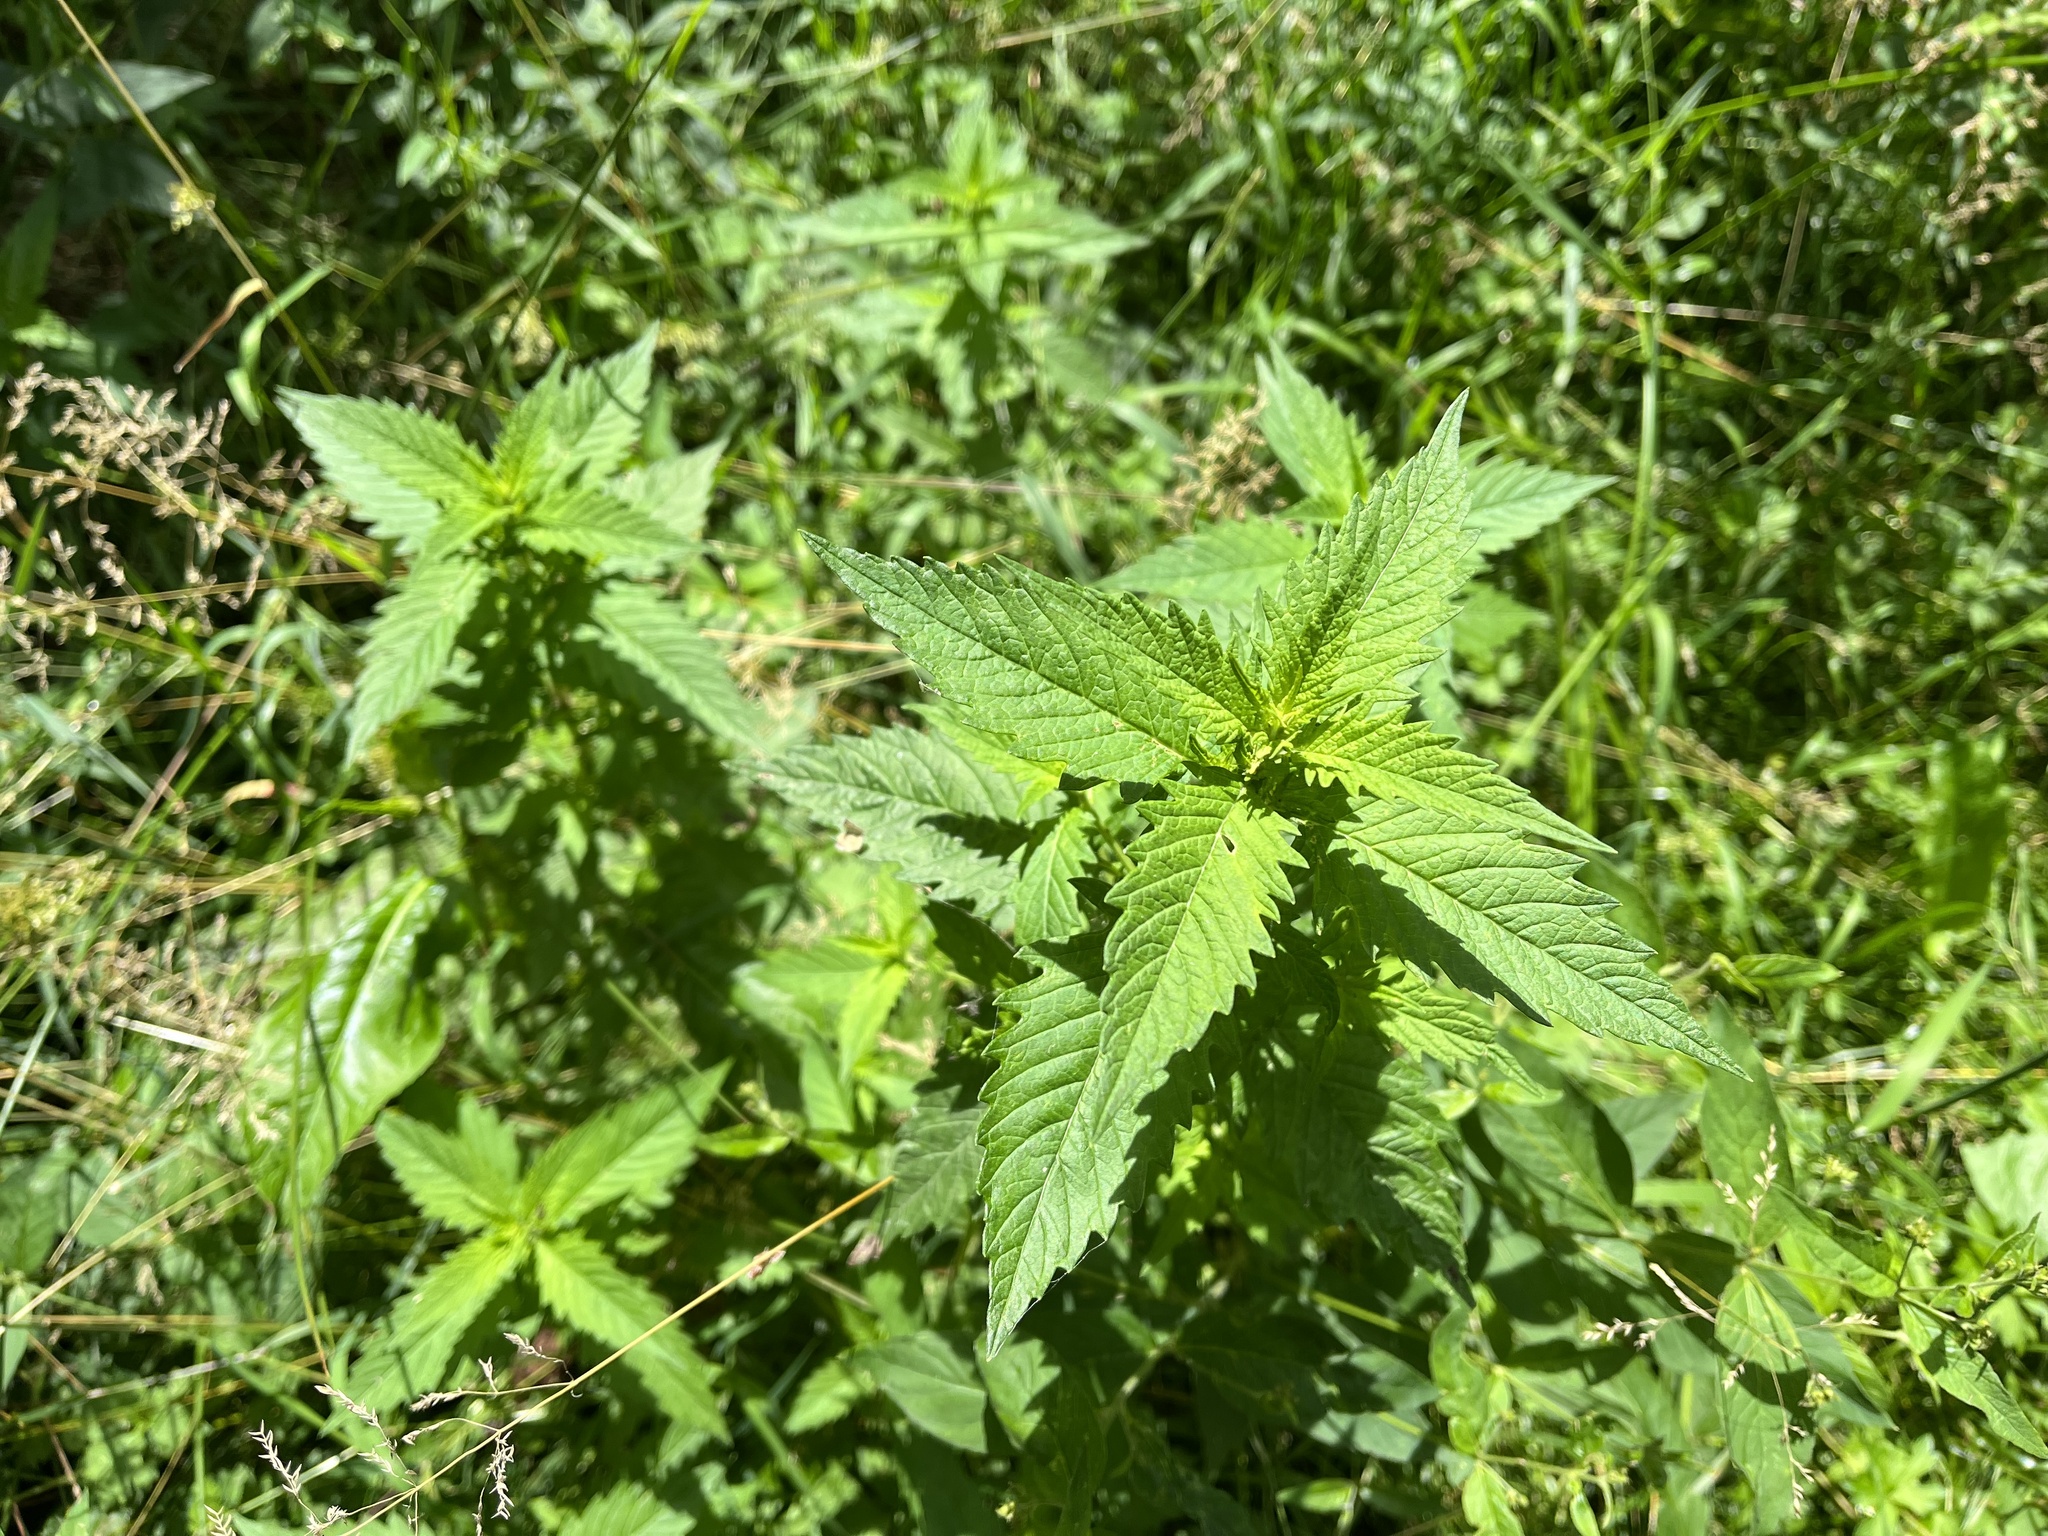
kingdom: Plantae
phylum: Tracheophyta
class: Magnoliopsida
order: Lamiales
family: Lamiaceae
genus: Lycopus
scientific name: Lycopus europaeus
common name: European bugleweed
